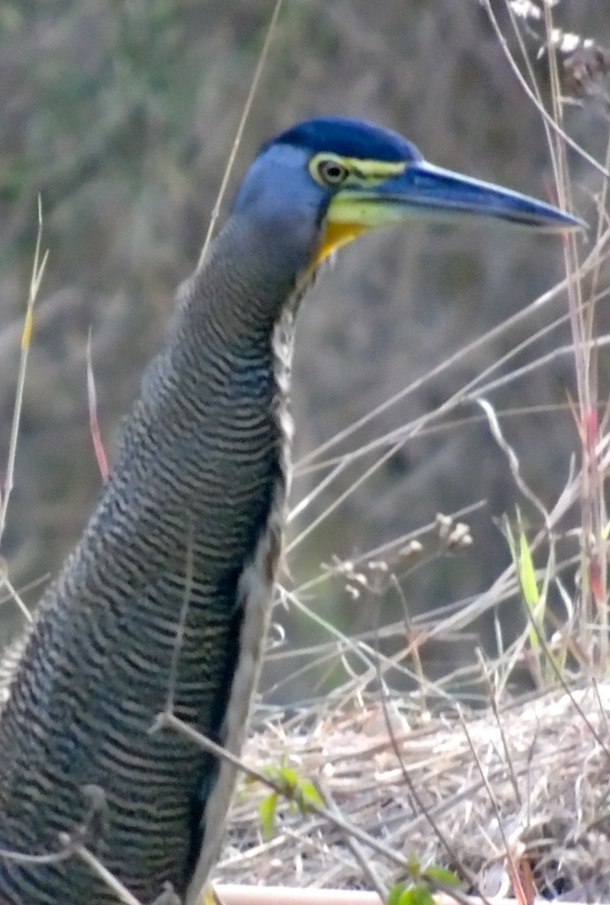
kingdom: Animalia
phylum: Chordata
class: Aves
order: Pelecaniformes
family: Ardeidae
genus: Tigrisoma
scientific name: Tigrisoma mexicanum
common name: Bare-throated tiger-heron
